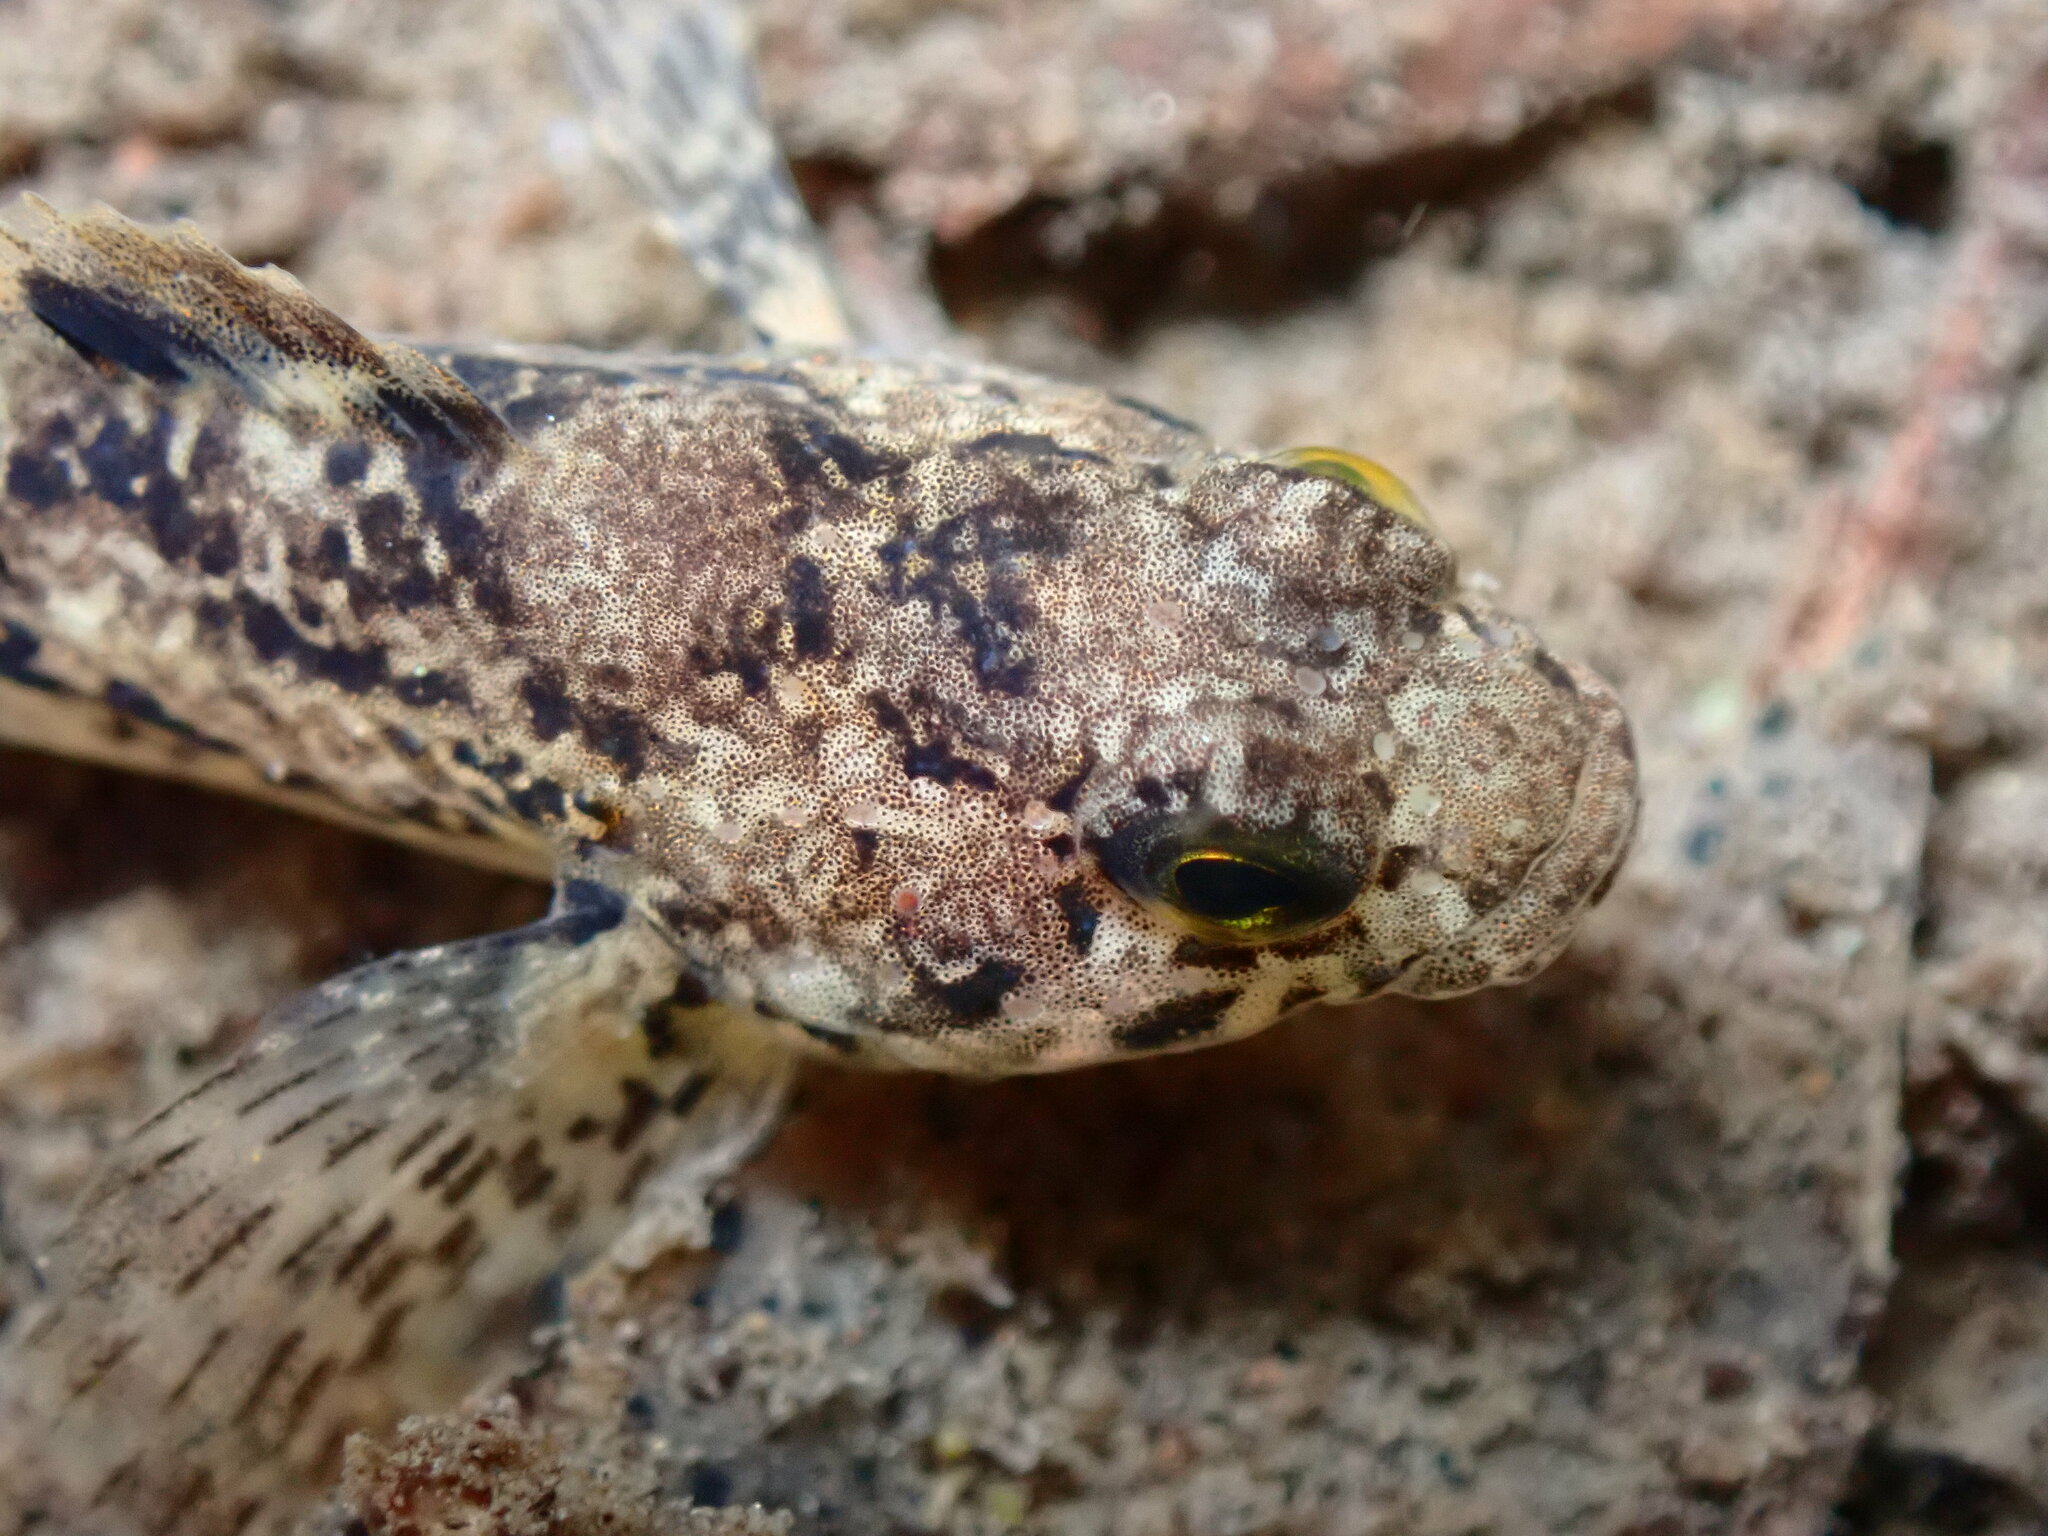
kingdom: Animalia
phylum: Chordata
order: Scorpaeniformes
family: Cottidae
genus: Cottus
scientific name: Cottus asper
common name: Prickly sculpin
